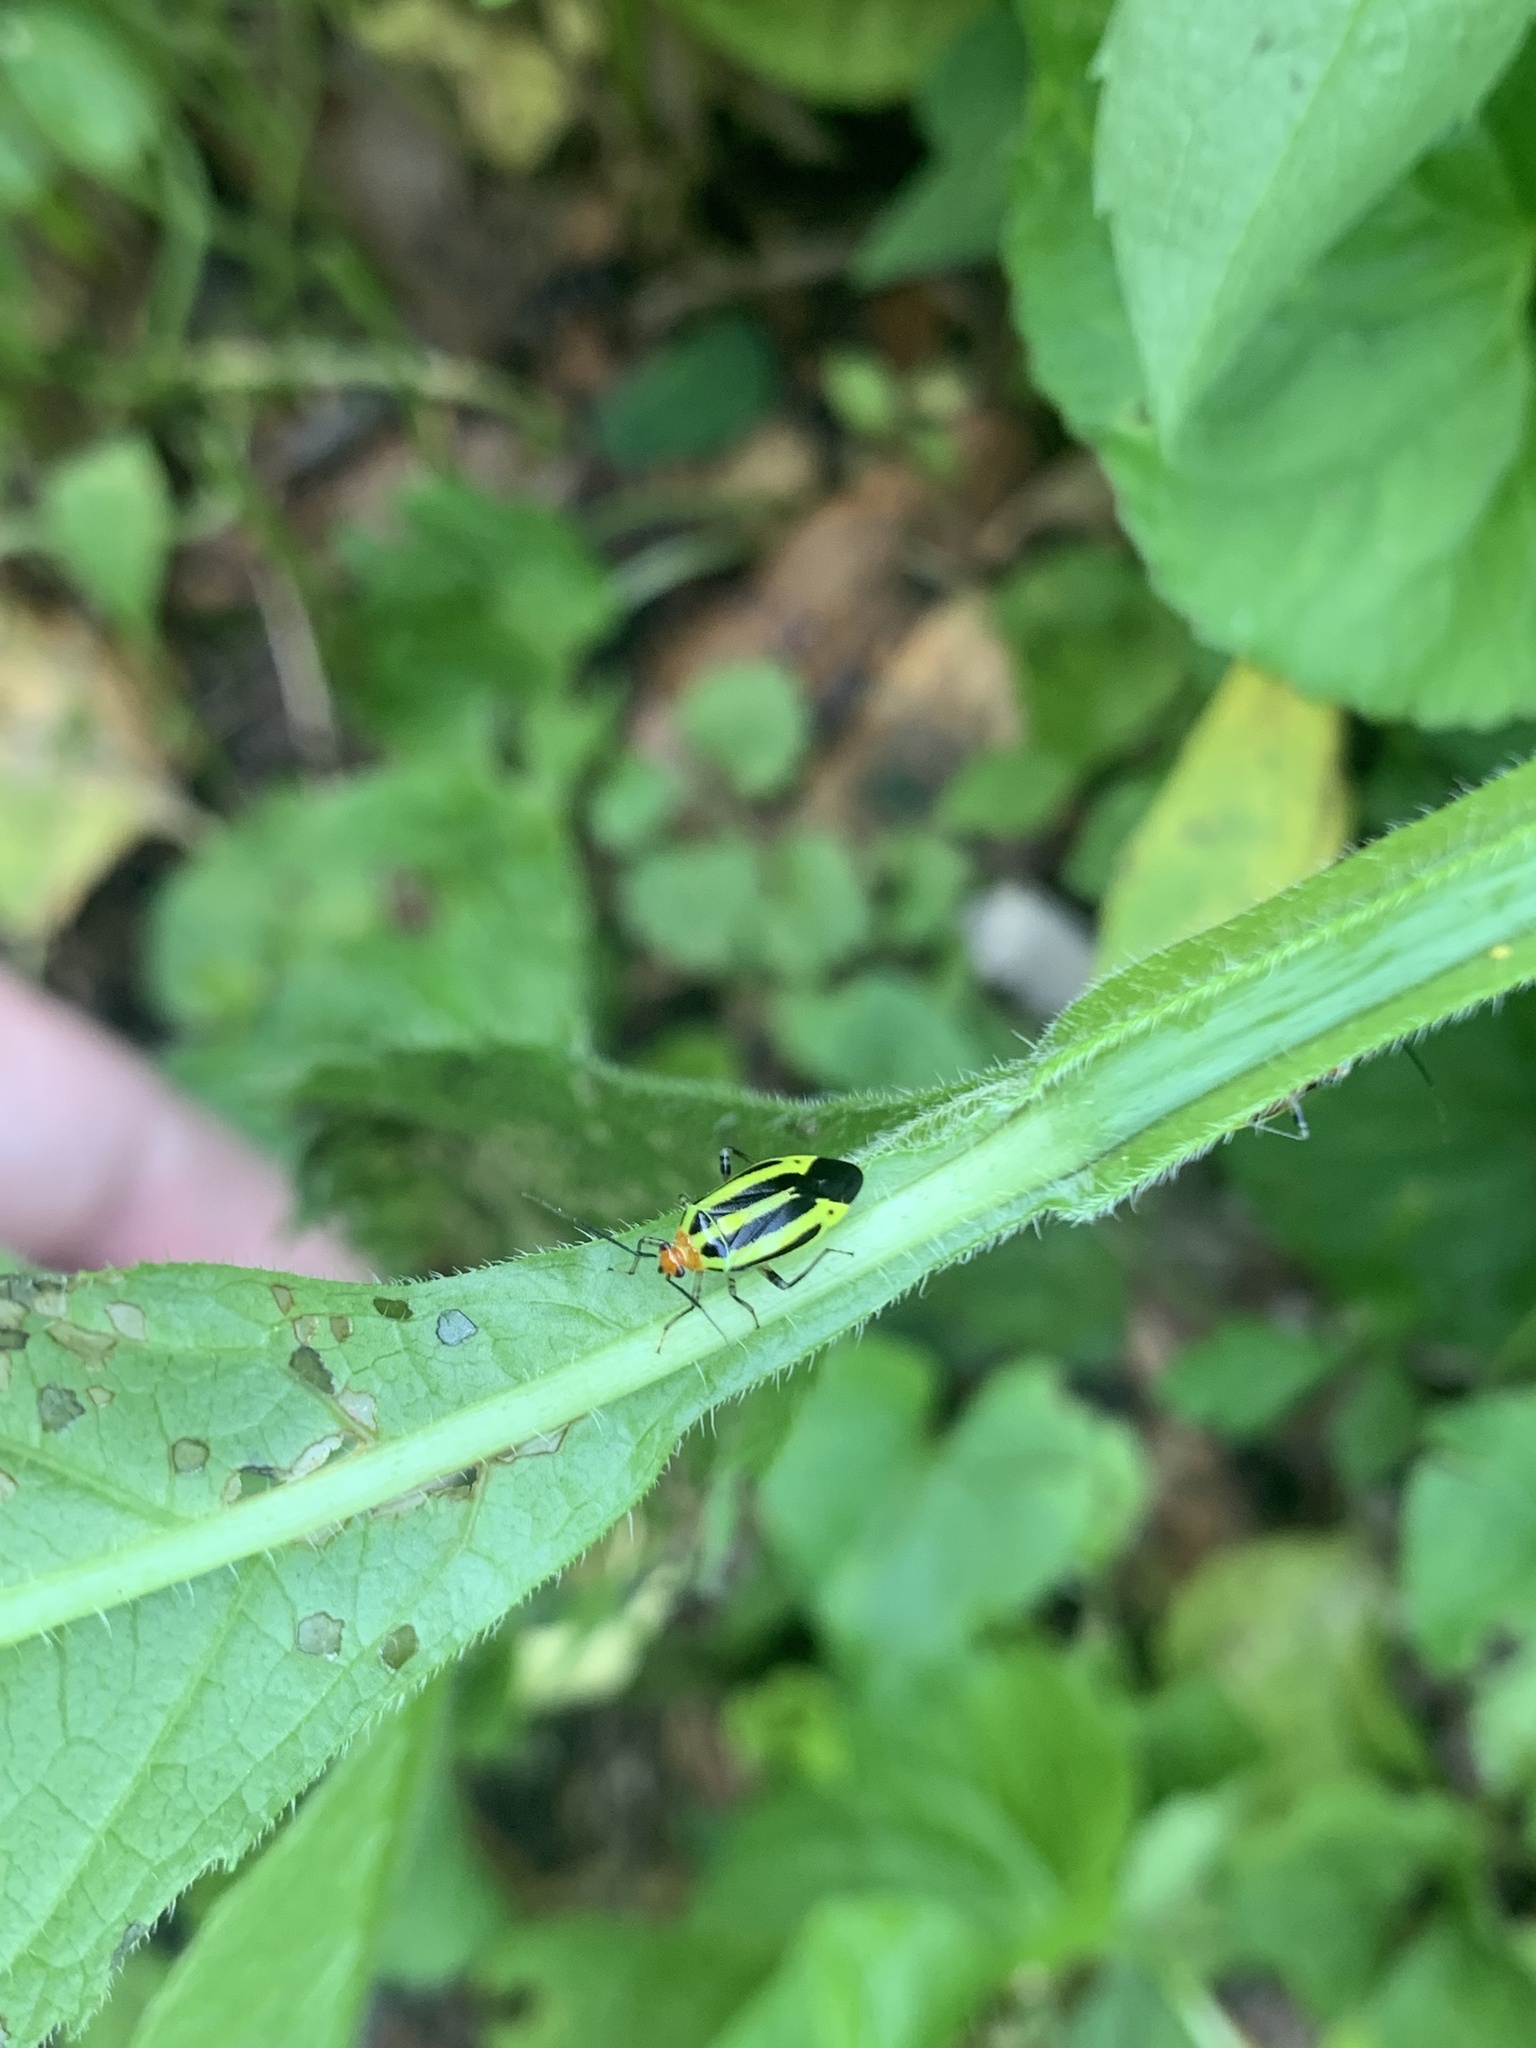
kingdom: Animalia
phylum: Arthropoda
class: Insecta
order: Hemiptera
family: Miridae
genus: Poecilocapsus
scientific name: Poecilocapsus lineatus
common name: Four-lined plant bug
